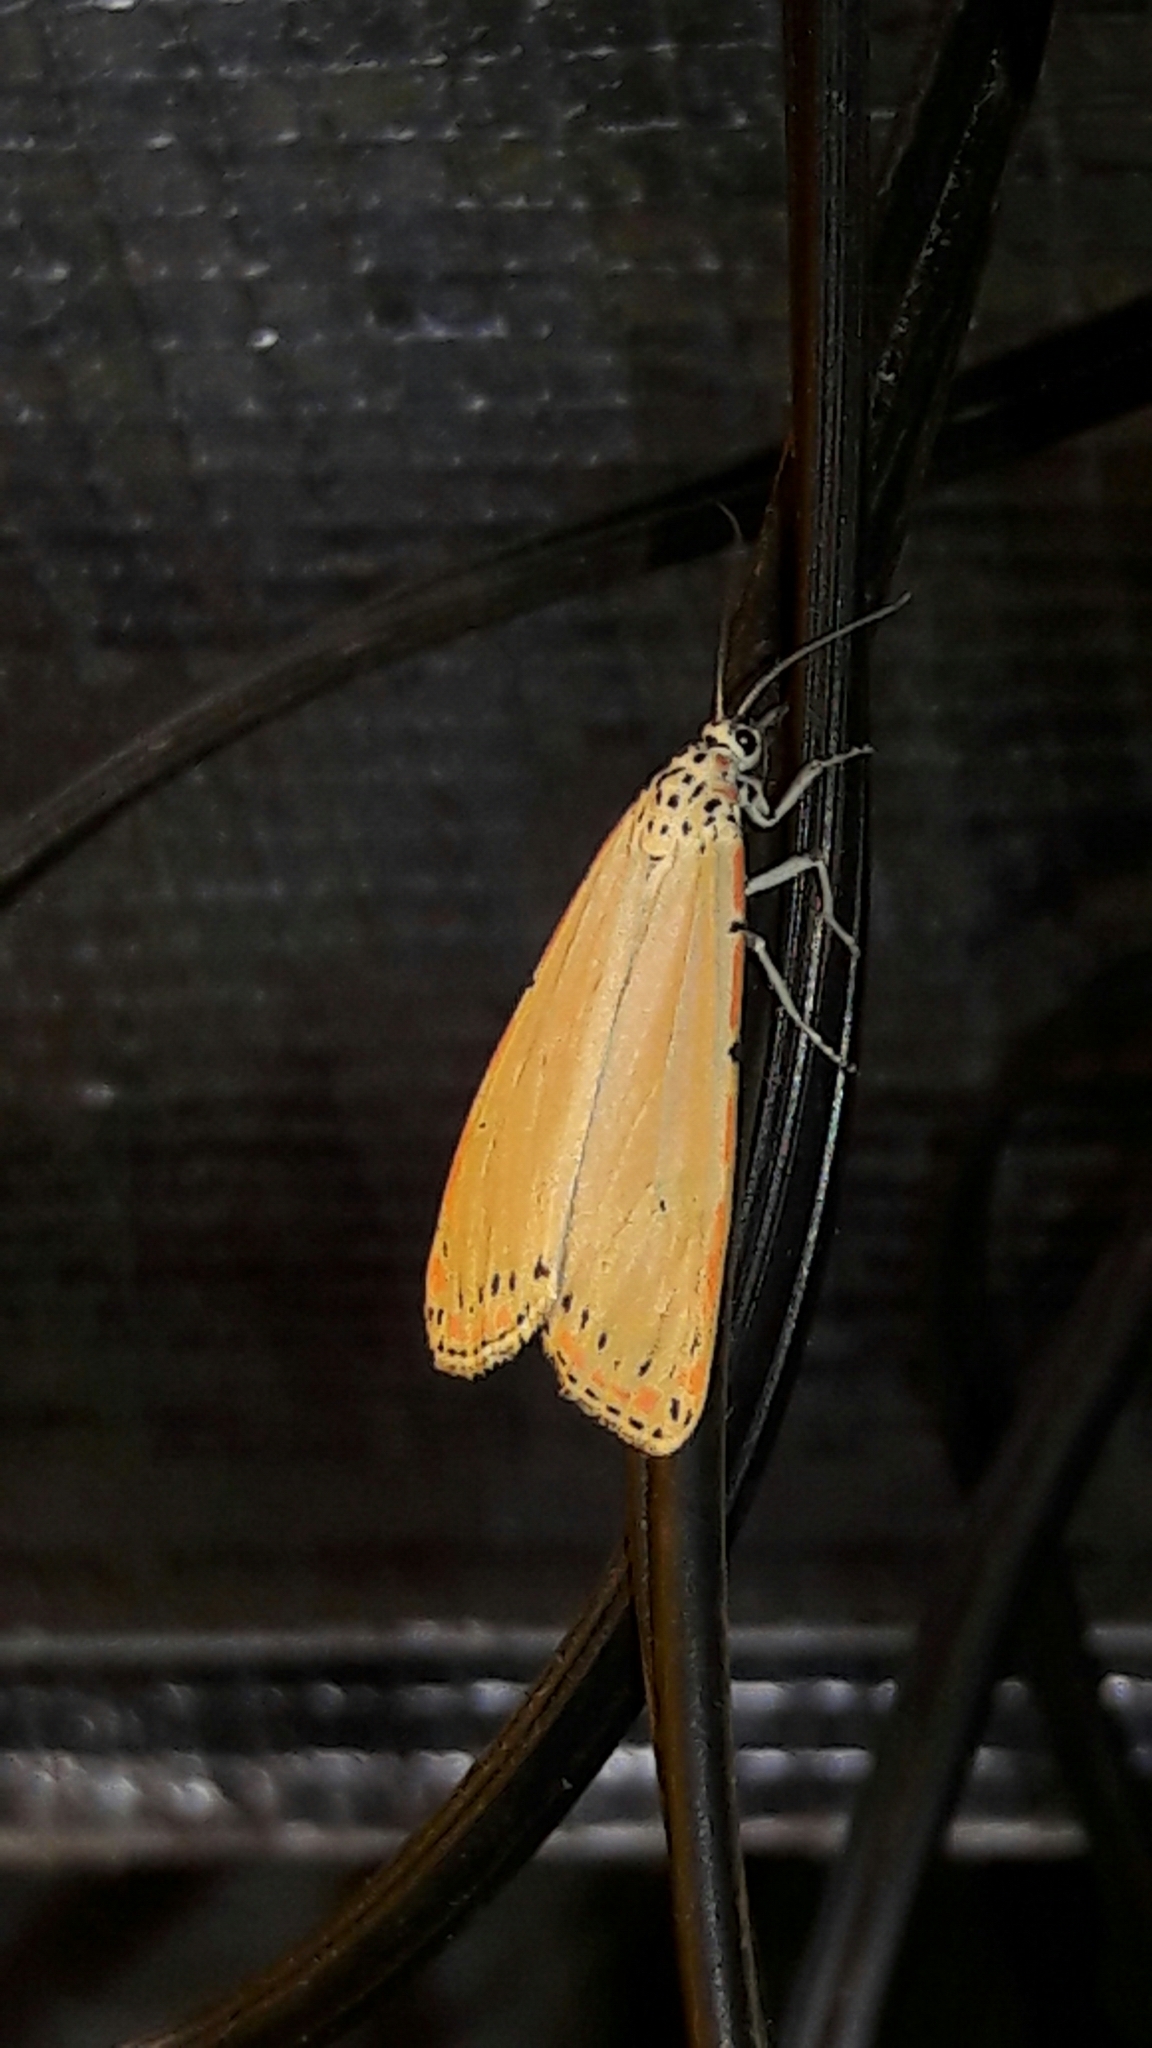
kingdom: Animalia
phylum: Arthropoda
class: Insecta
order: Lepidoptera
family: Erebidae
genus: Utetheisa
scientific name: Utetheisa ornatrix
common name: Beautiful utetheisa
